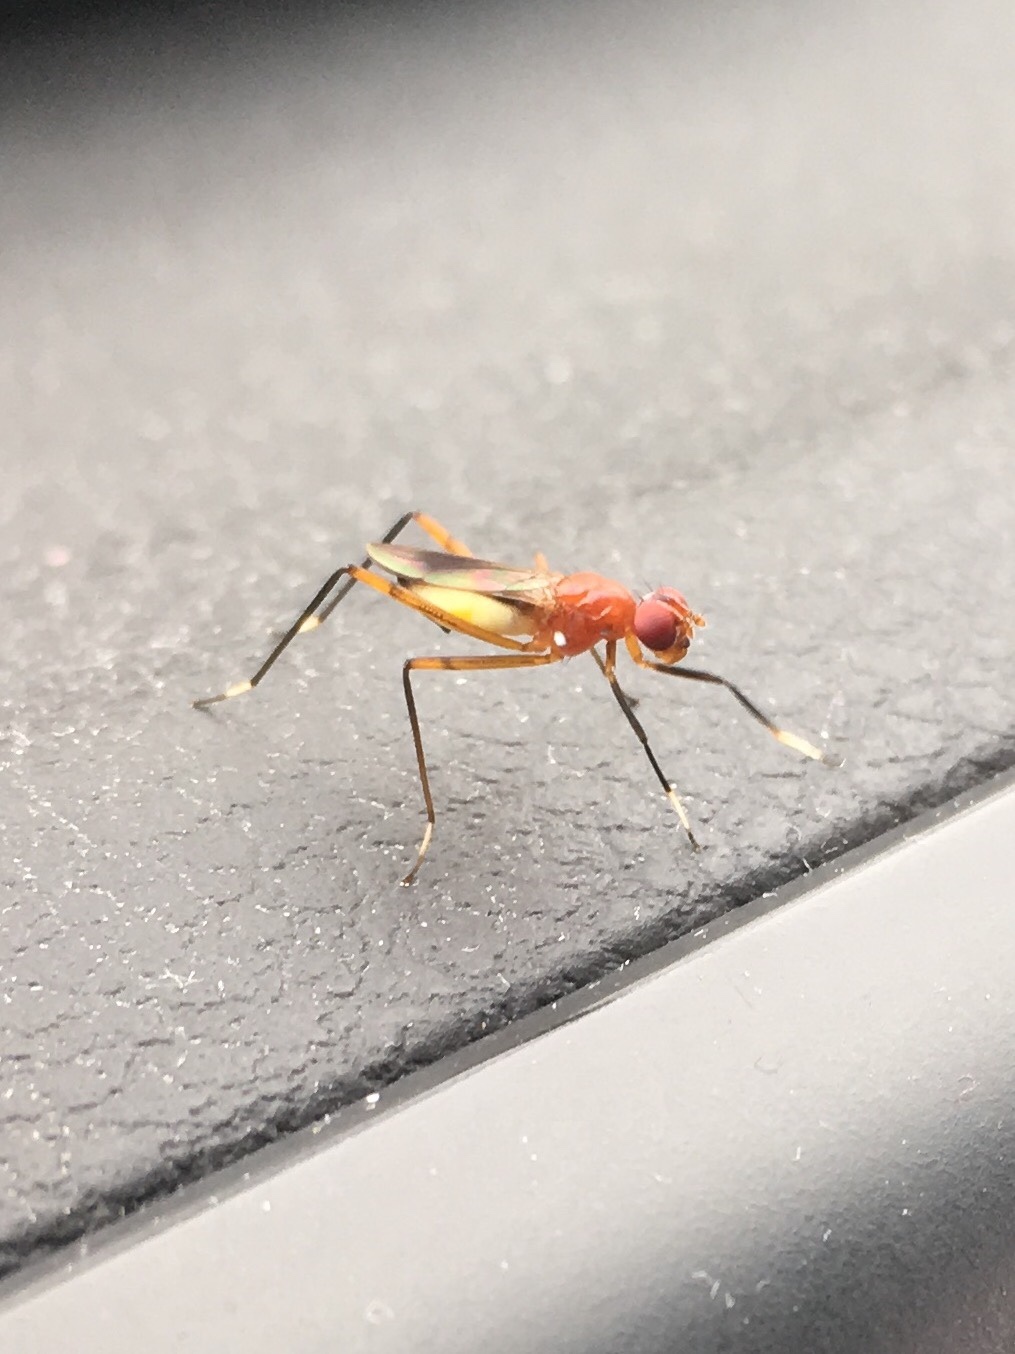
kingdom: Animalia
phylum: Arthropoda
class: Insecta
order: Diptera
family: Micropezidae
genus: Grallipeza
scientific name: Grallipeza nebulosa
